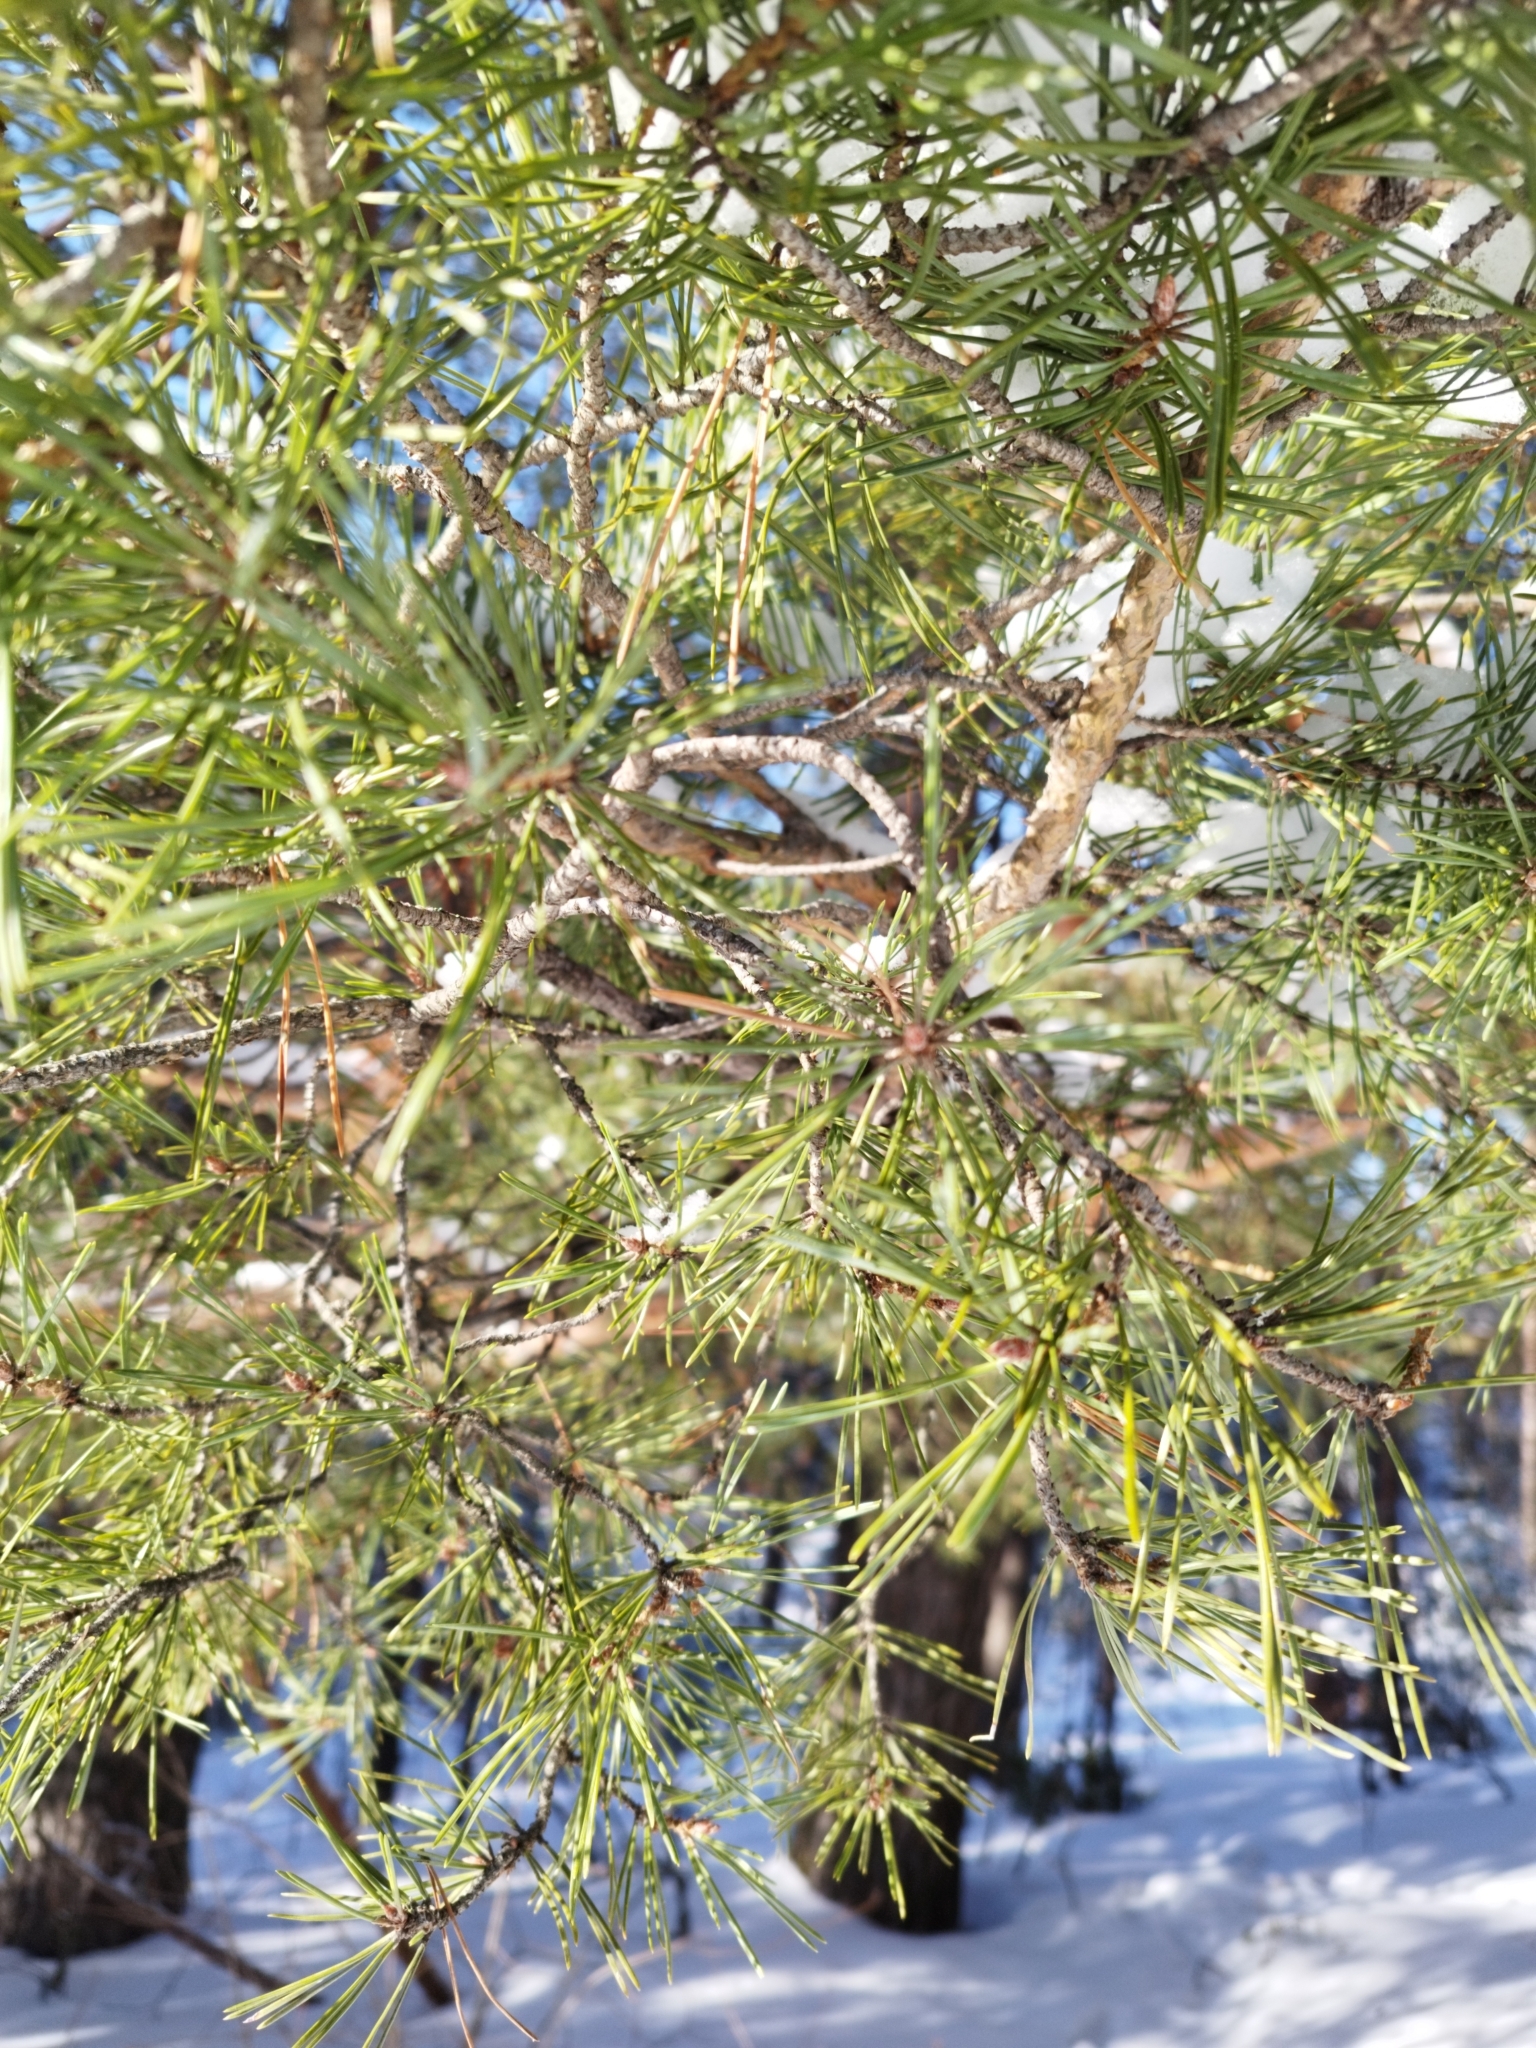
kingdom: Plantae
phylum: Tracheophyta
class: Pinopsida
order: Pinales
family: Pinaceae
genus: Pinus
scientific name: Pinus sylvestris
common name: Scots pine
